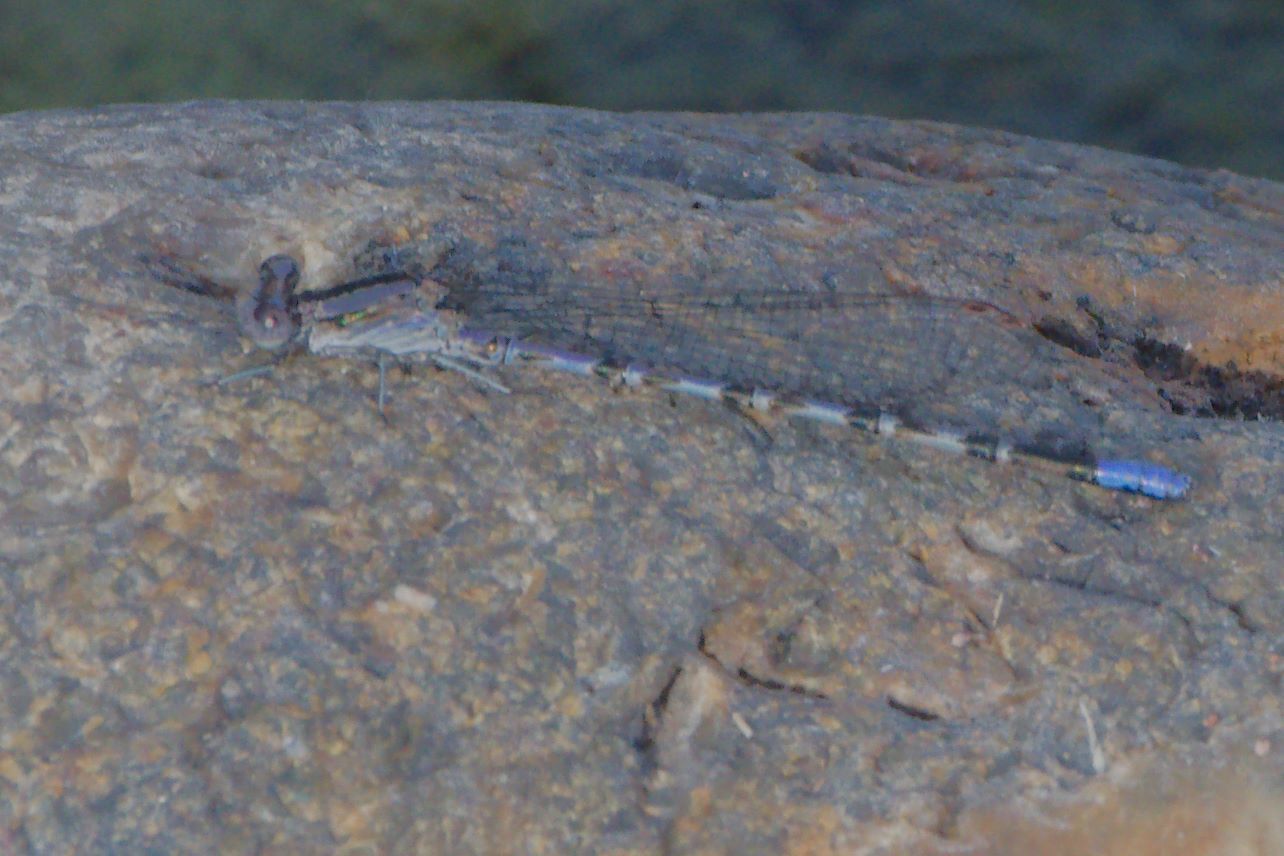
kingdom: Animalia
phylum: Arthropoda
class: Insecta
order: Odonata
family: Coenagrionidae
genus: Argia
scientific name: Argia immunda
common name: Kiowa dancer
